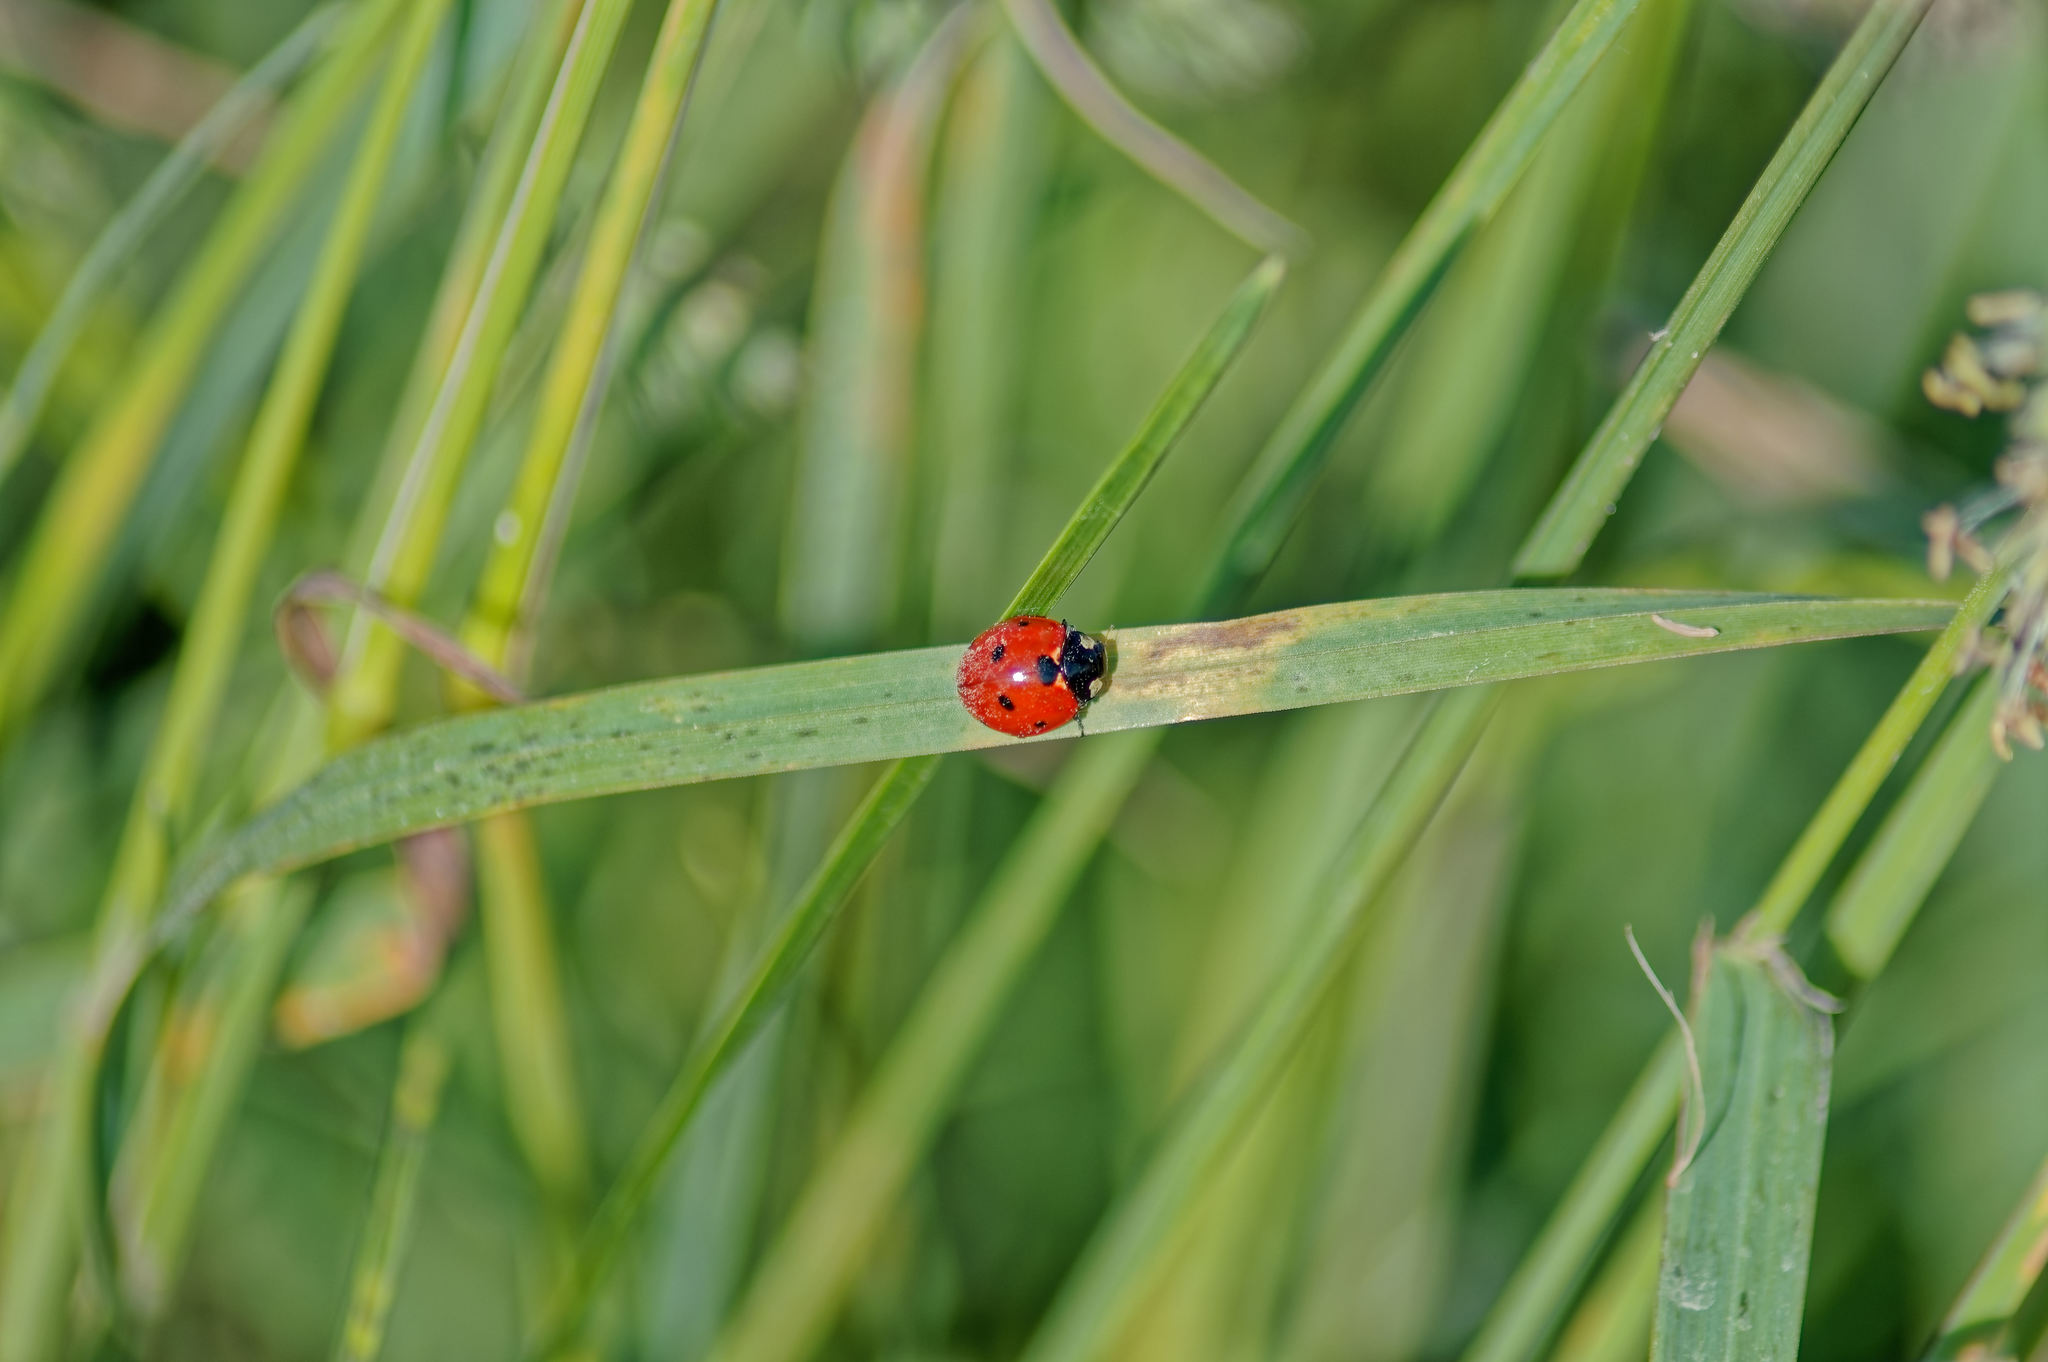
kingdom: Animalia
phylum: Arthropoda
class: Insecta
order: Coleoptera
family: Coccinellidae
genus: Coccinella
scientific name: Coccinella septempunctata
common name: Sevenspotted lady beetle
